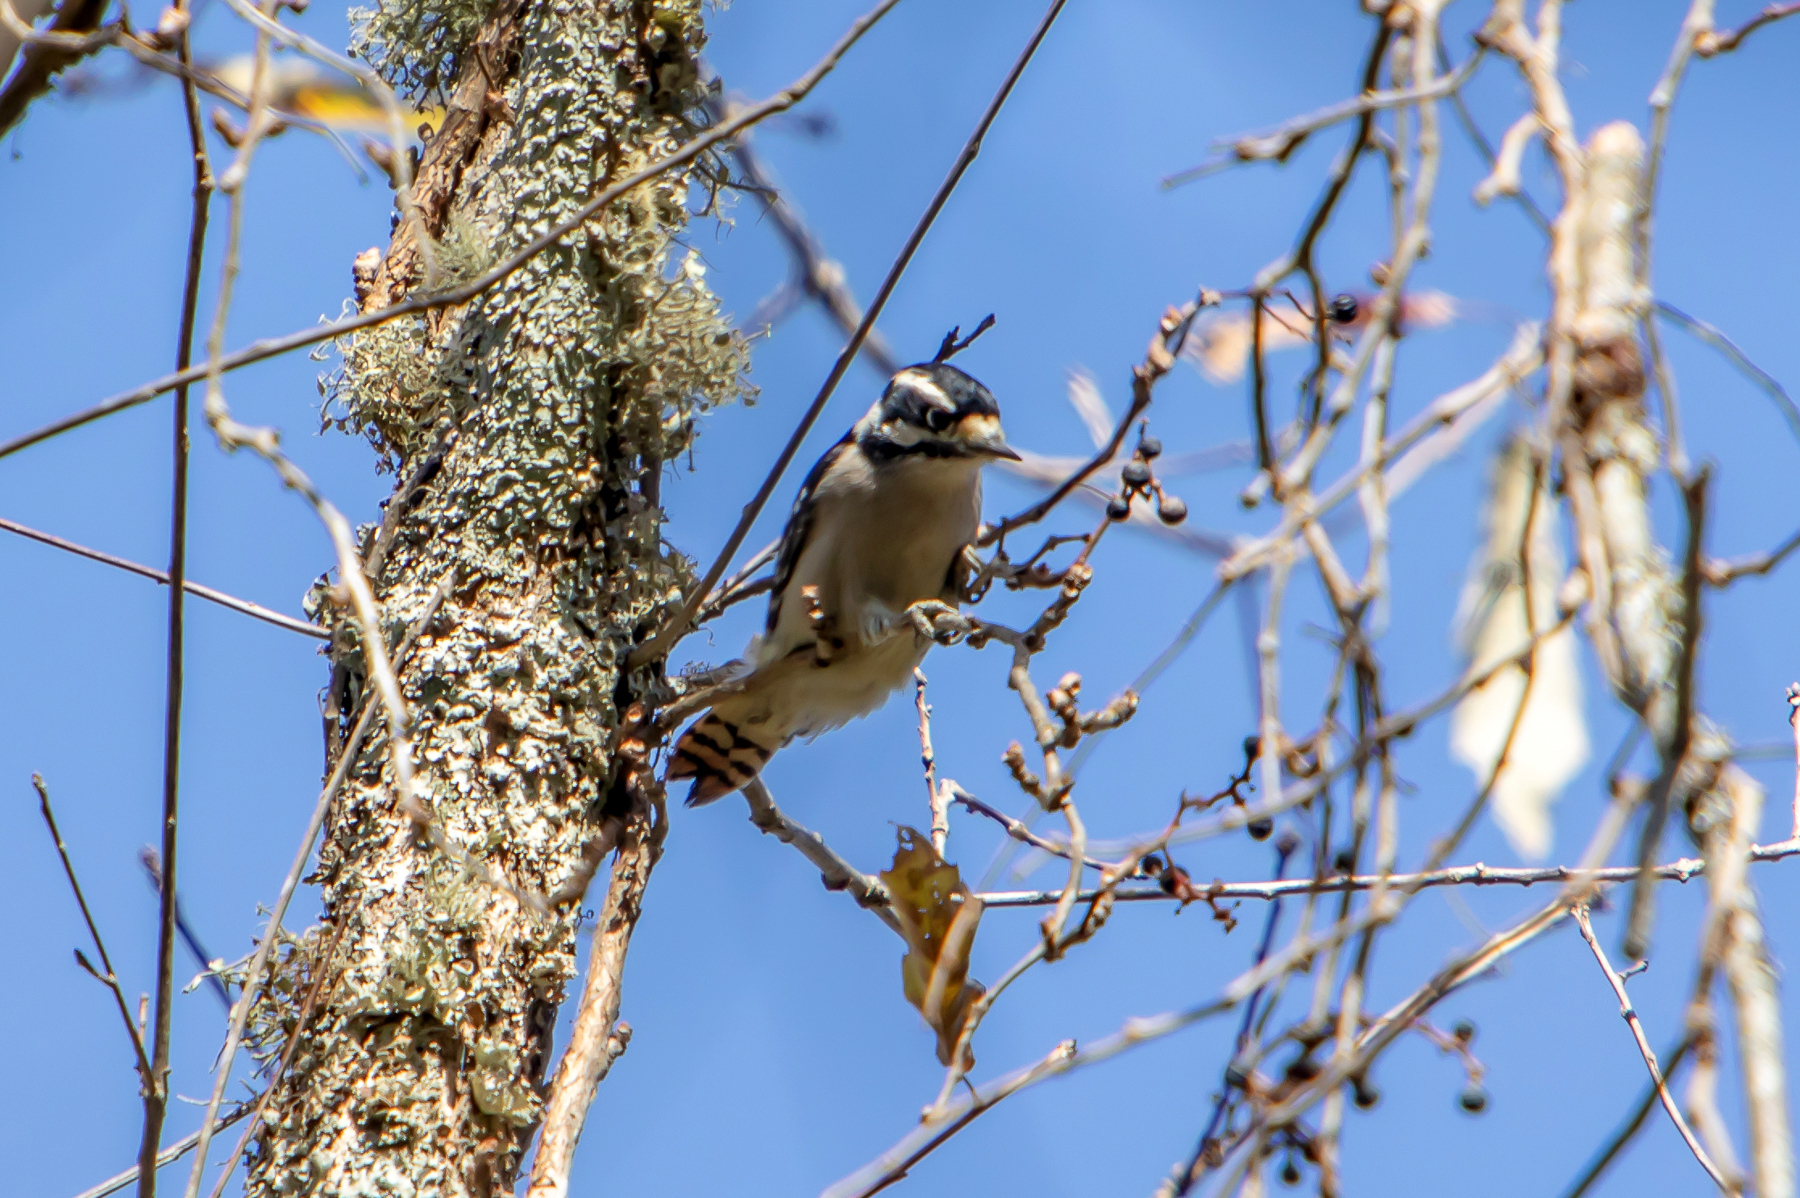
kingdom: Animalia
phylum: Chordata
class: Aves
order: Piciformes
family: Picidae
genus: Dryobates
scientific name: Dryobates pubescens
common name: Downy woodpecker
